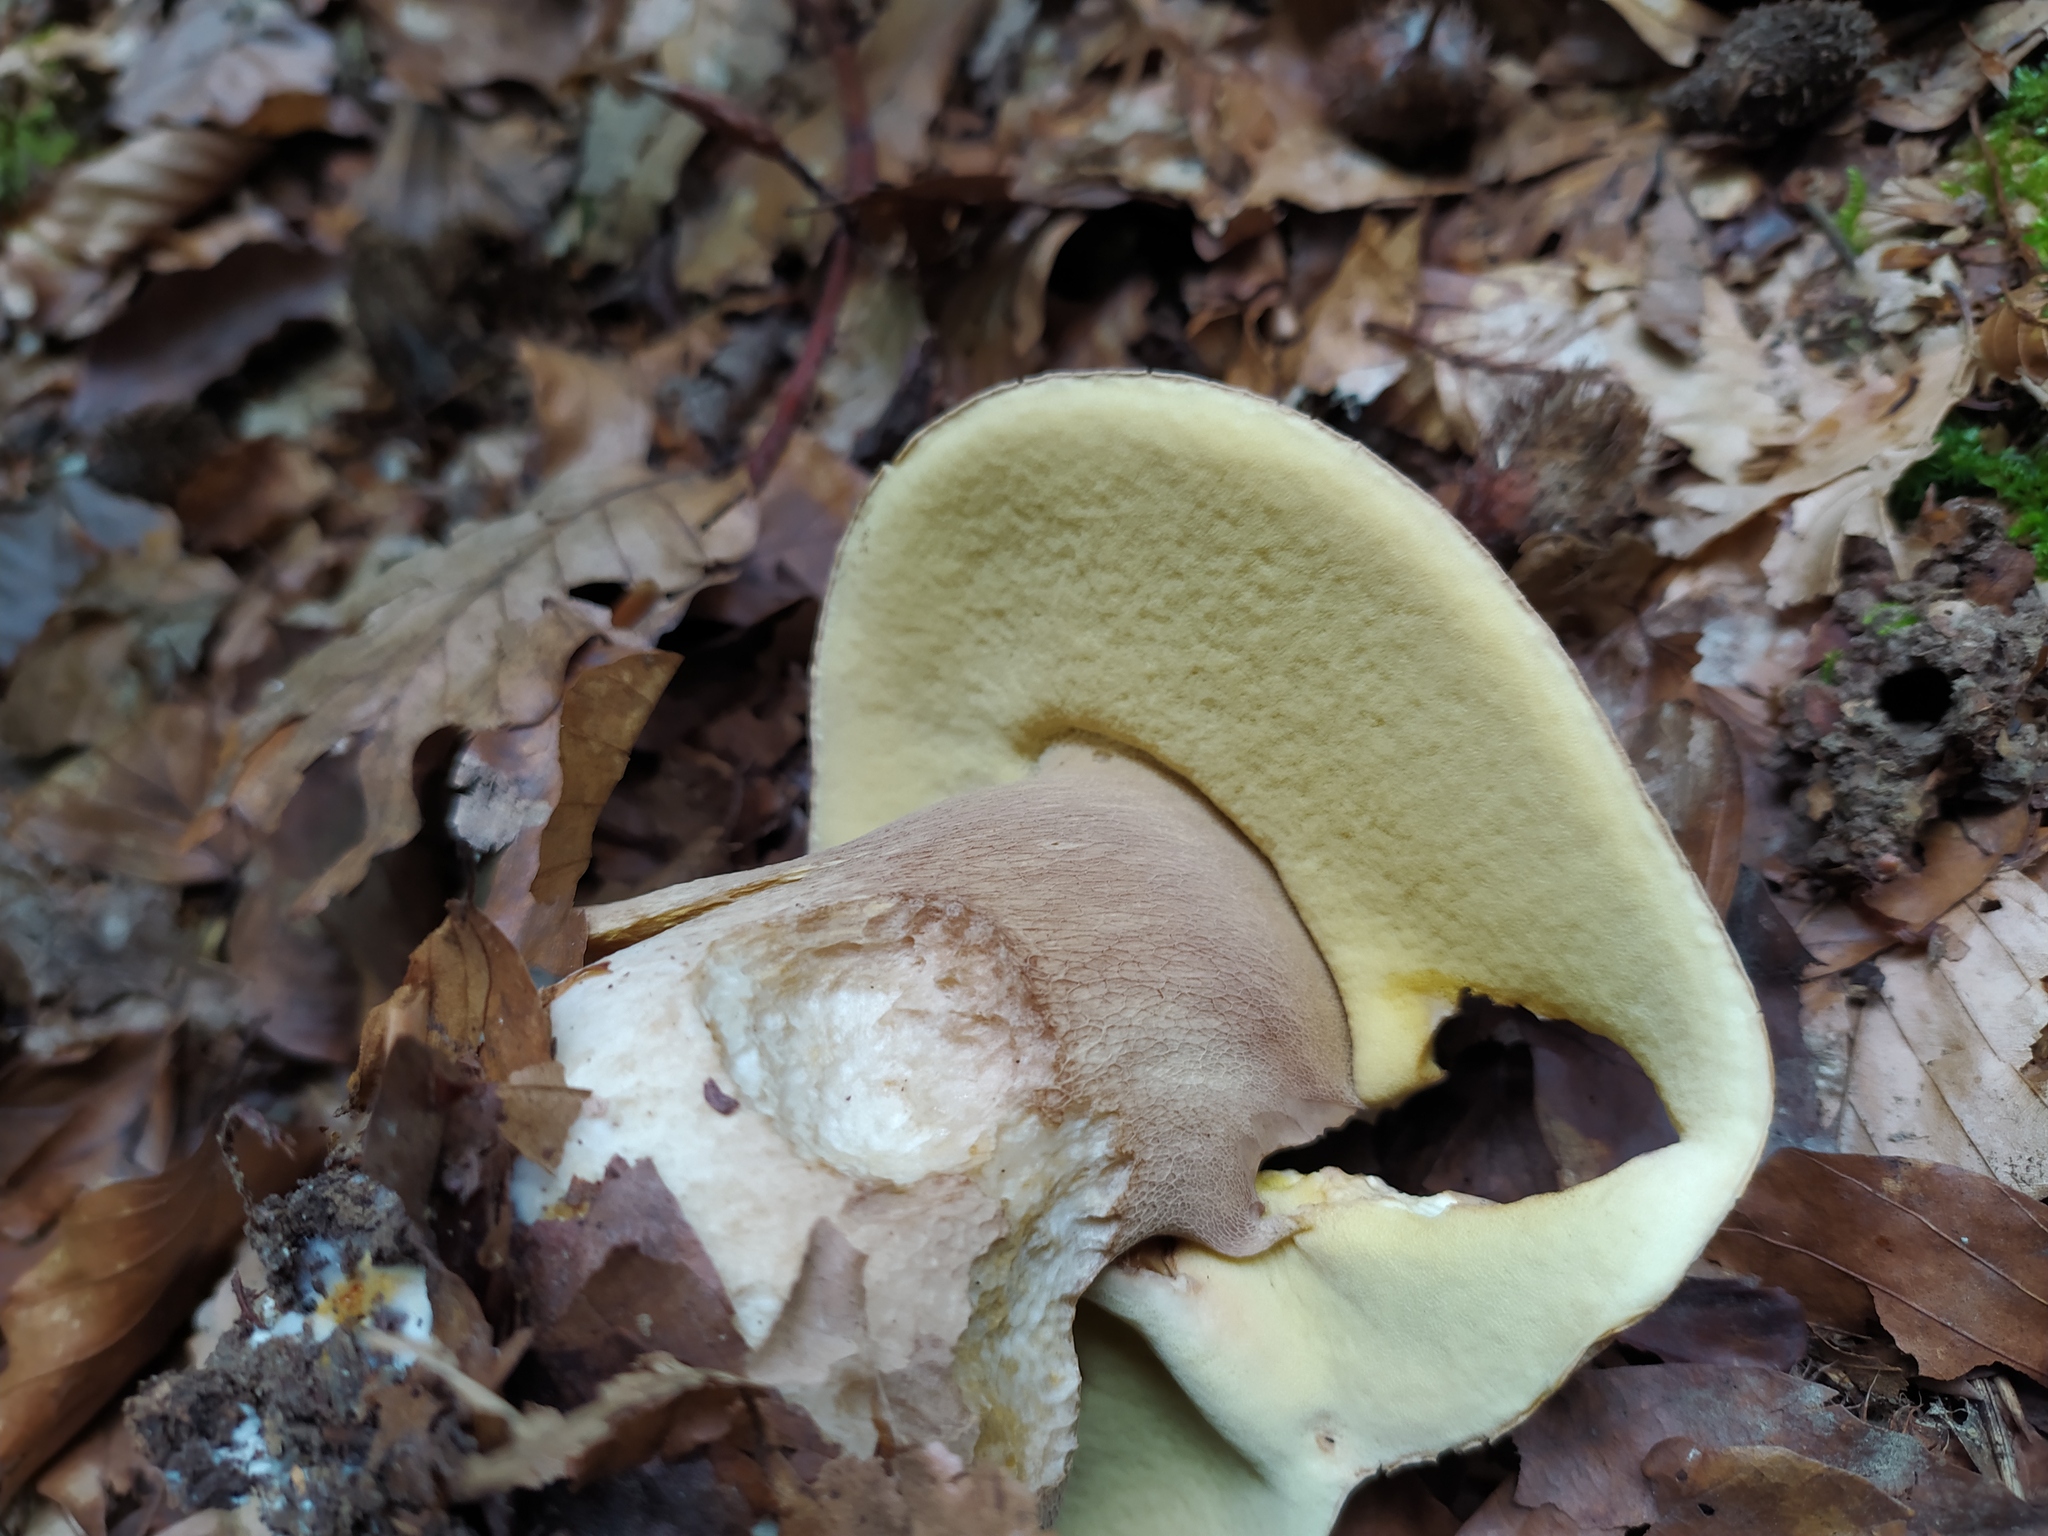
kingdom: Fungi
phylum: Basidiomycota
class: Agaricomycetes
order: Boletales
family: Boletaceae
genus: Boletus
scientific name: Boletus reticulatus
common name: Summer bolete
